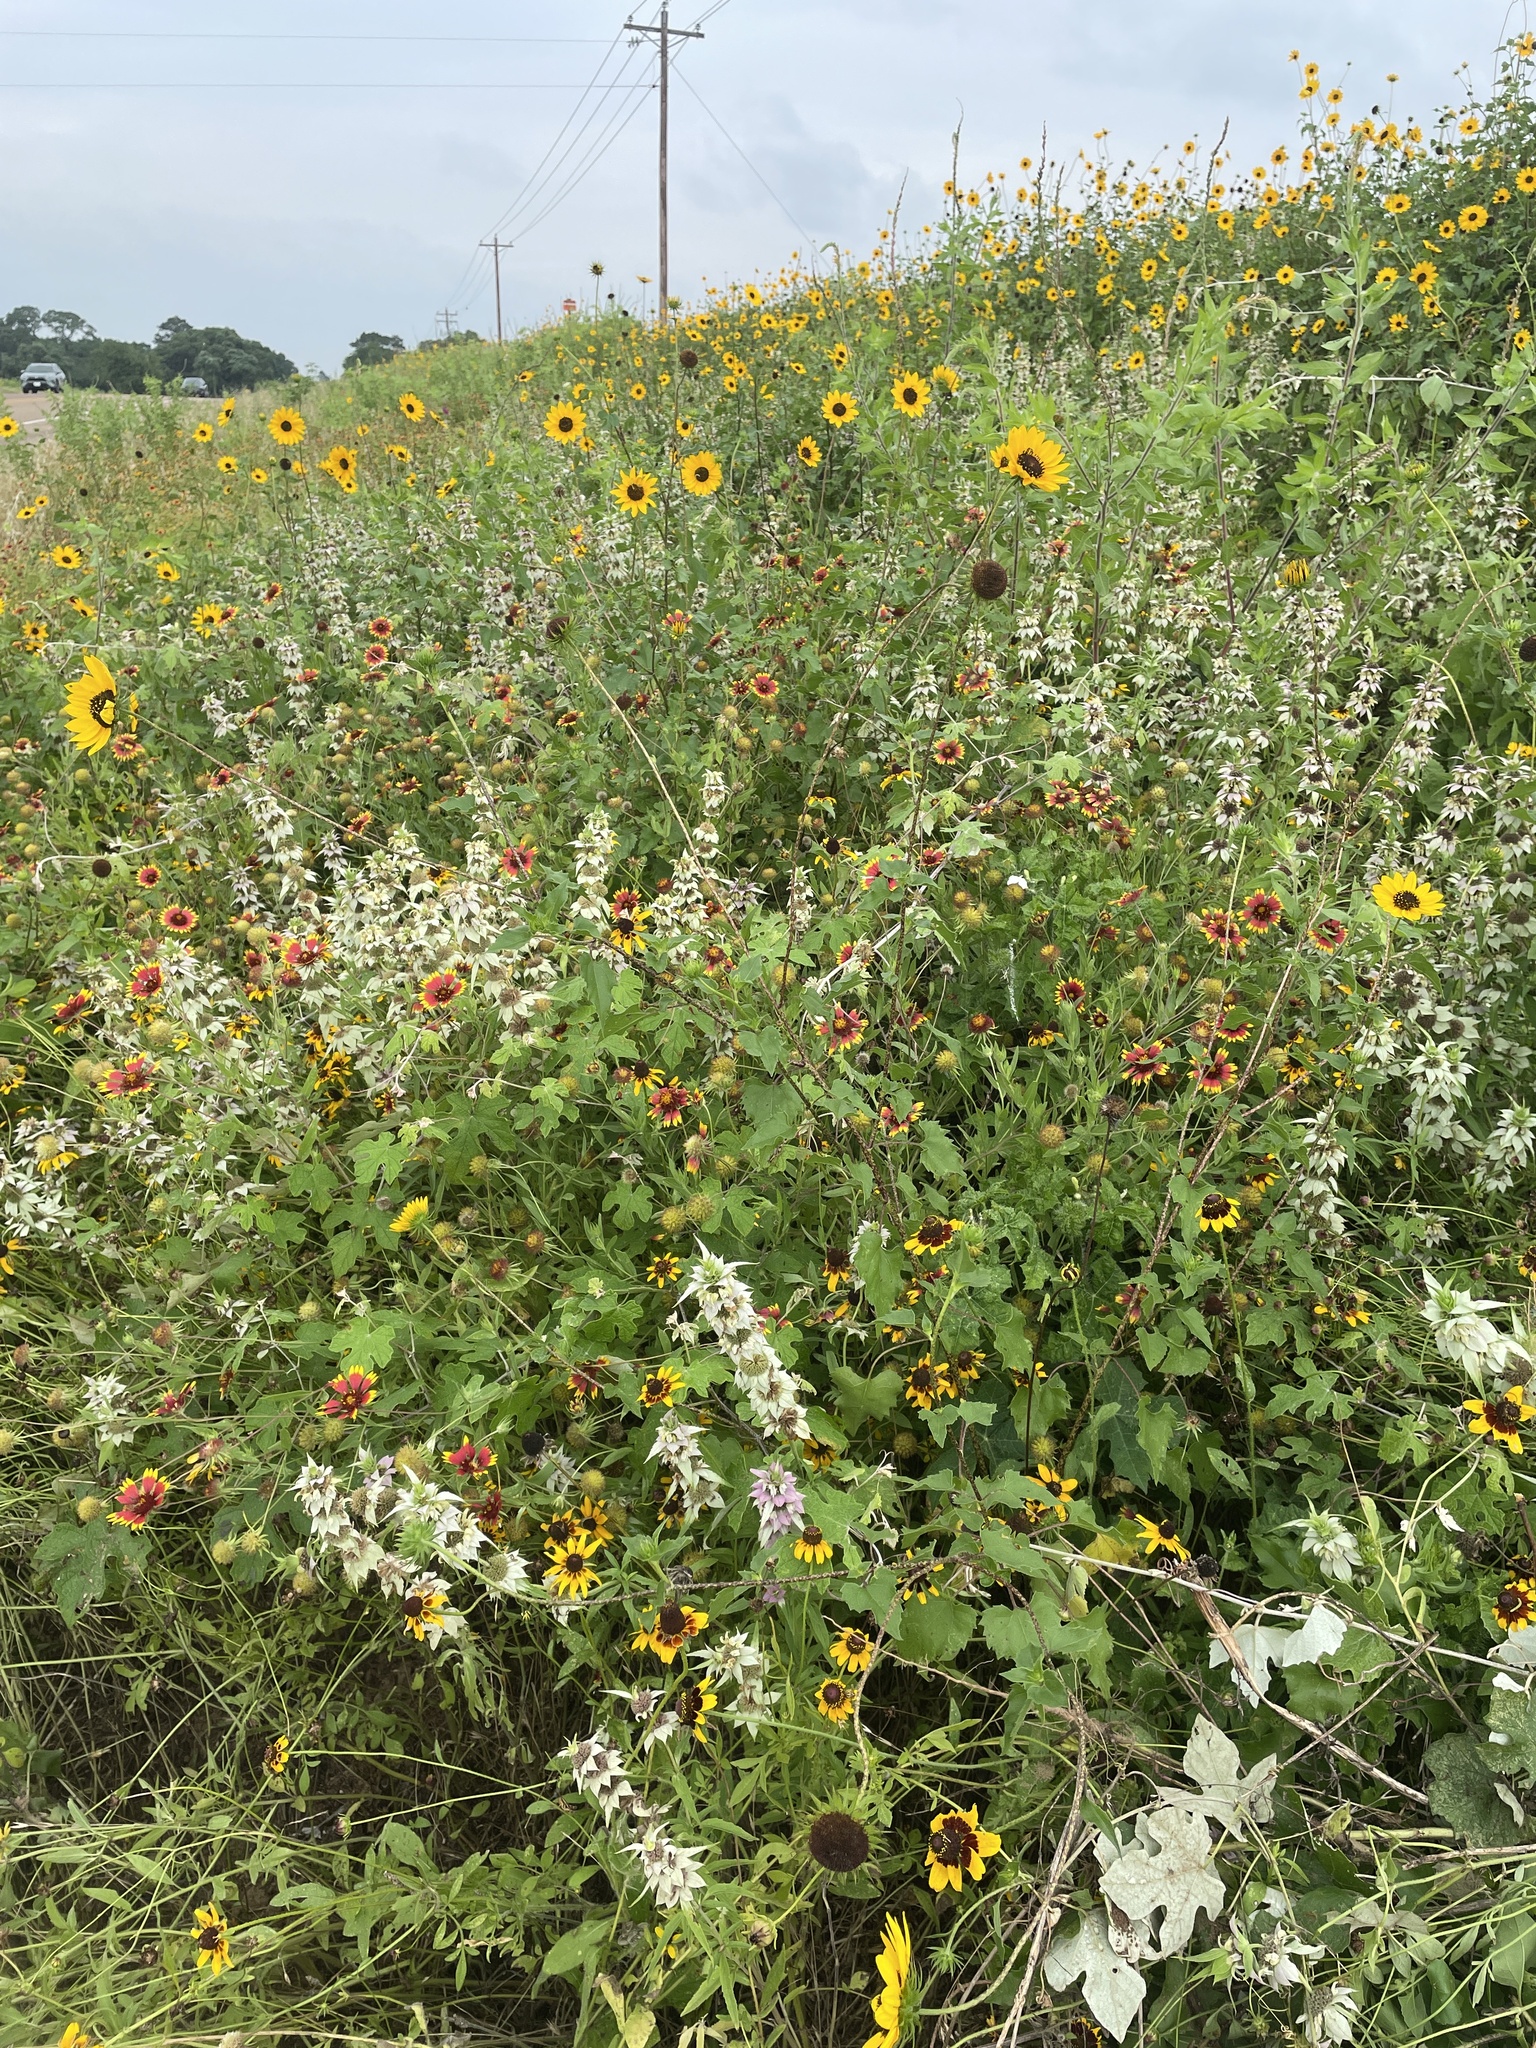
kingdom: Plantae
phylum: Tracheophyta
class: Magnoliopsida
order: Asterales
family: Asteraceae
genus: Helianthus
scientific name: Helianthus debilis
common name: Weak sunflower
